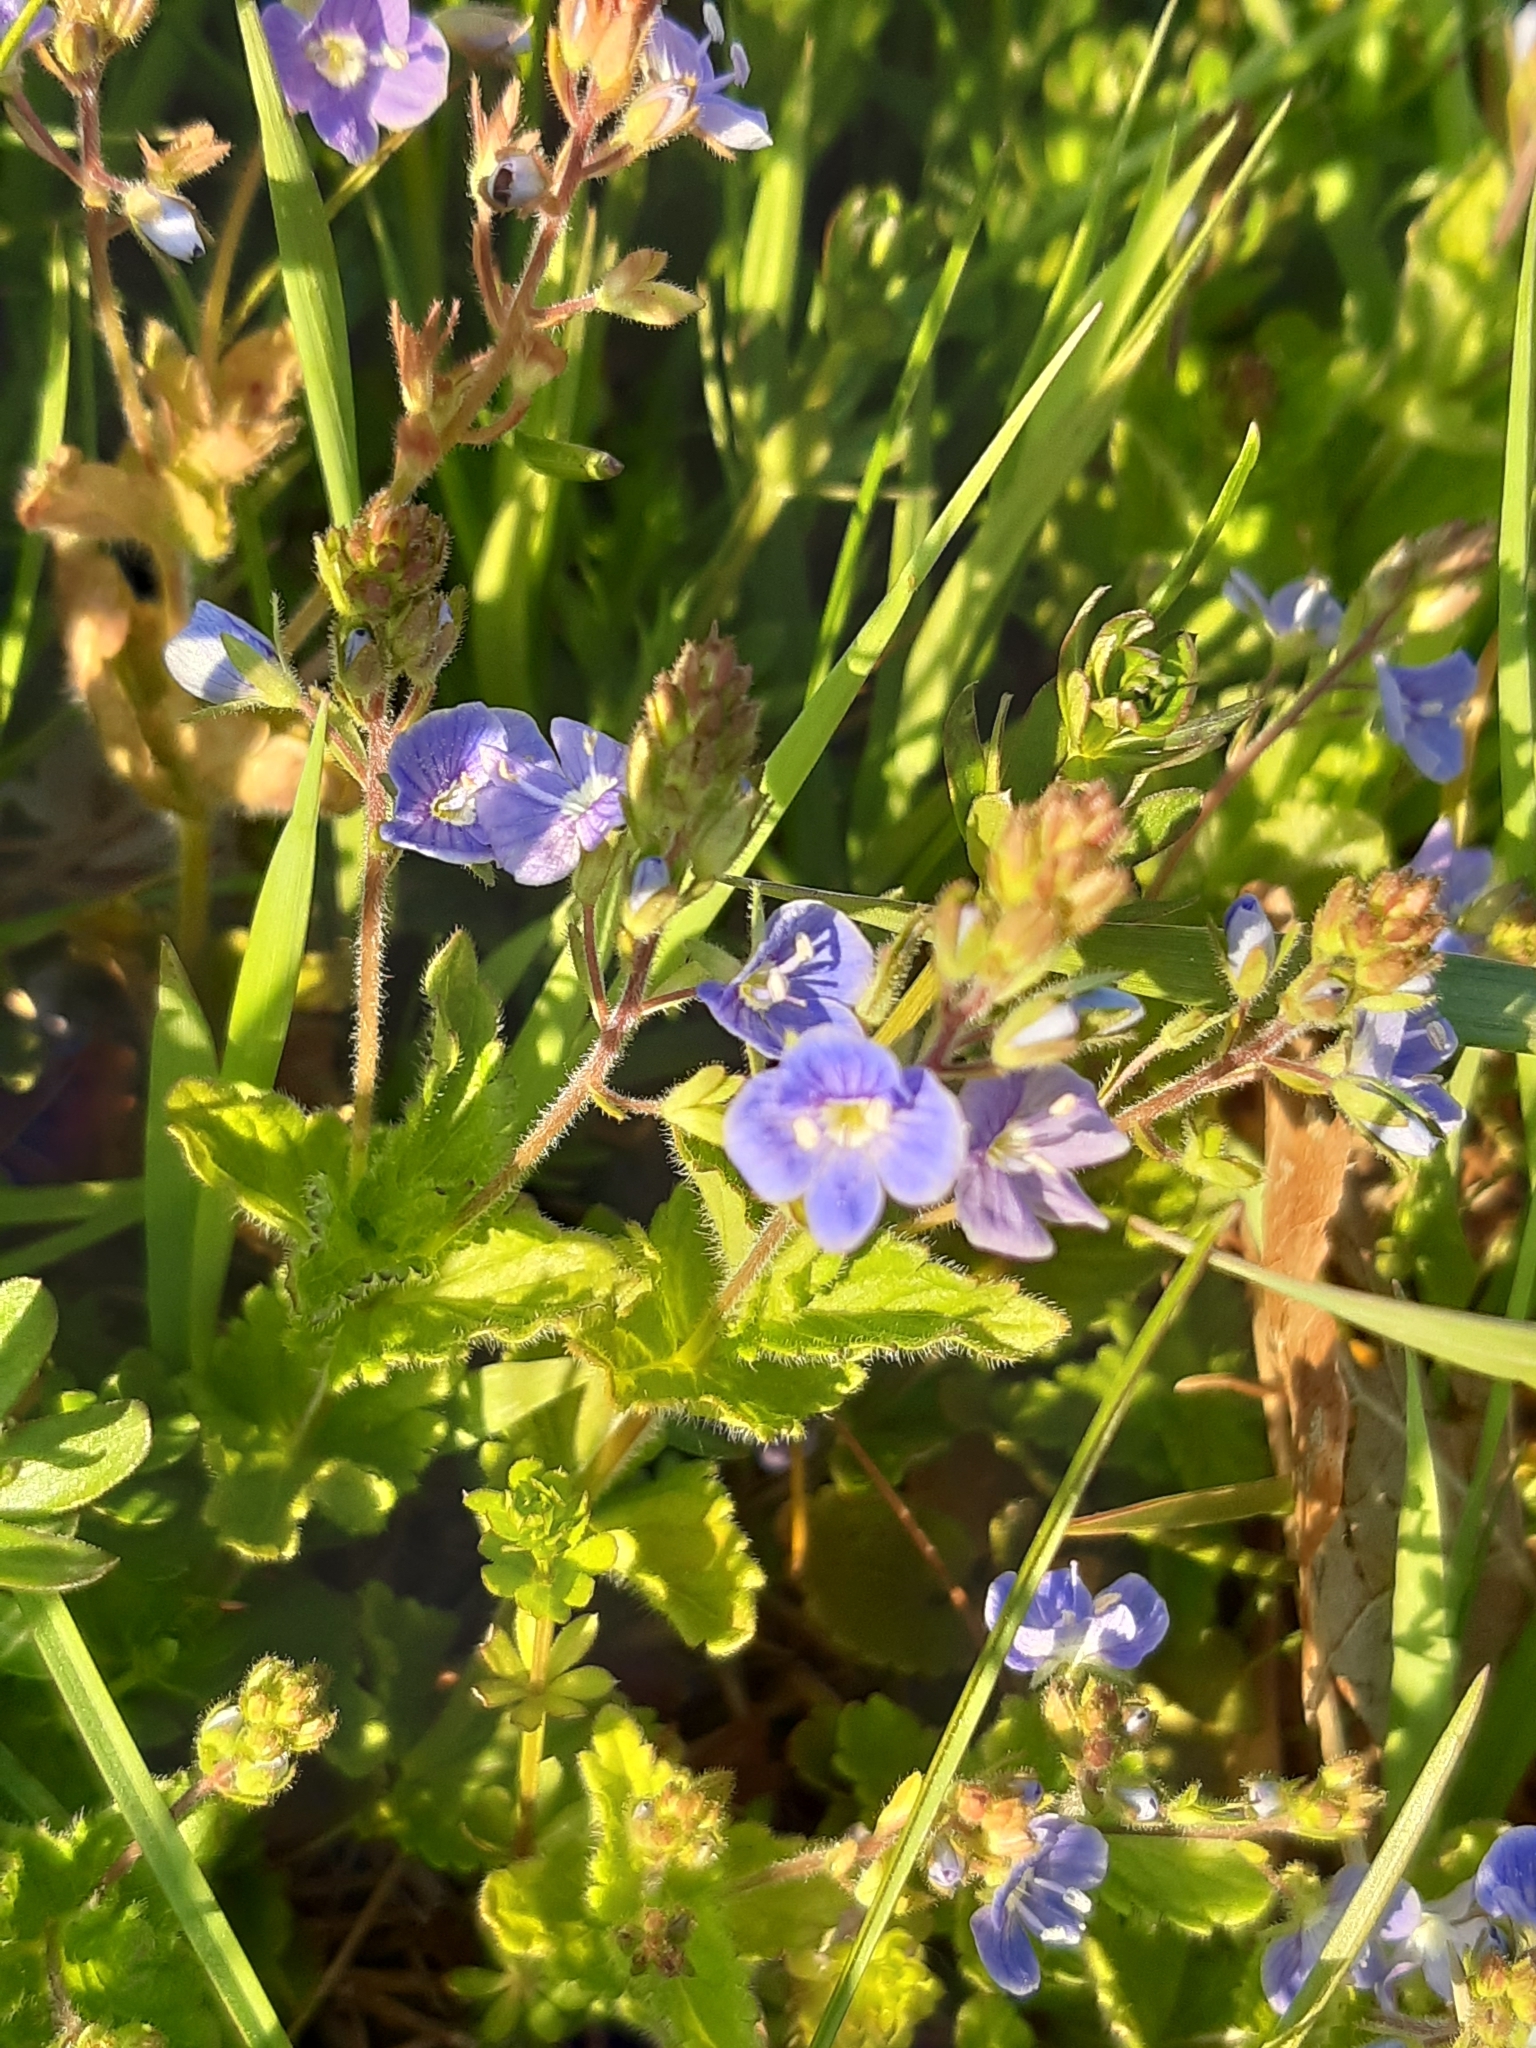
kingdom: Plantae
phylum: Tracheophyta
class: Magnoliopsida
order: Lamiales
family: Plantaginaceae
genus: Veronica
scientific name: Veronica chamaedrys
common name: Germander speedwell
